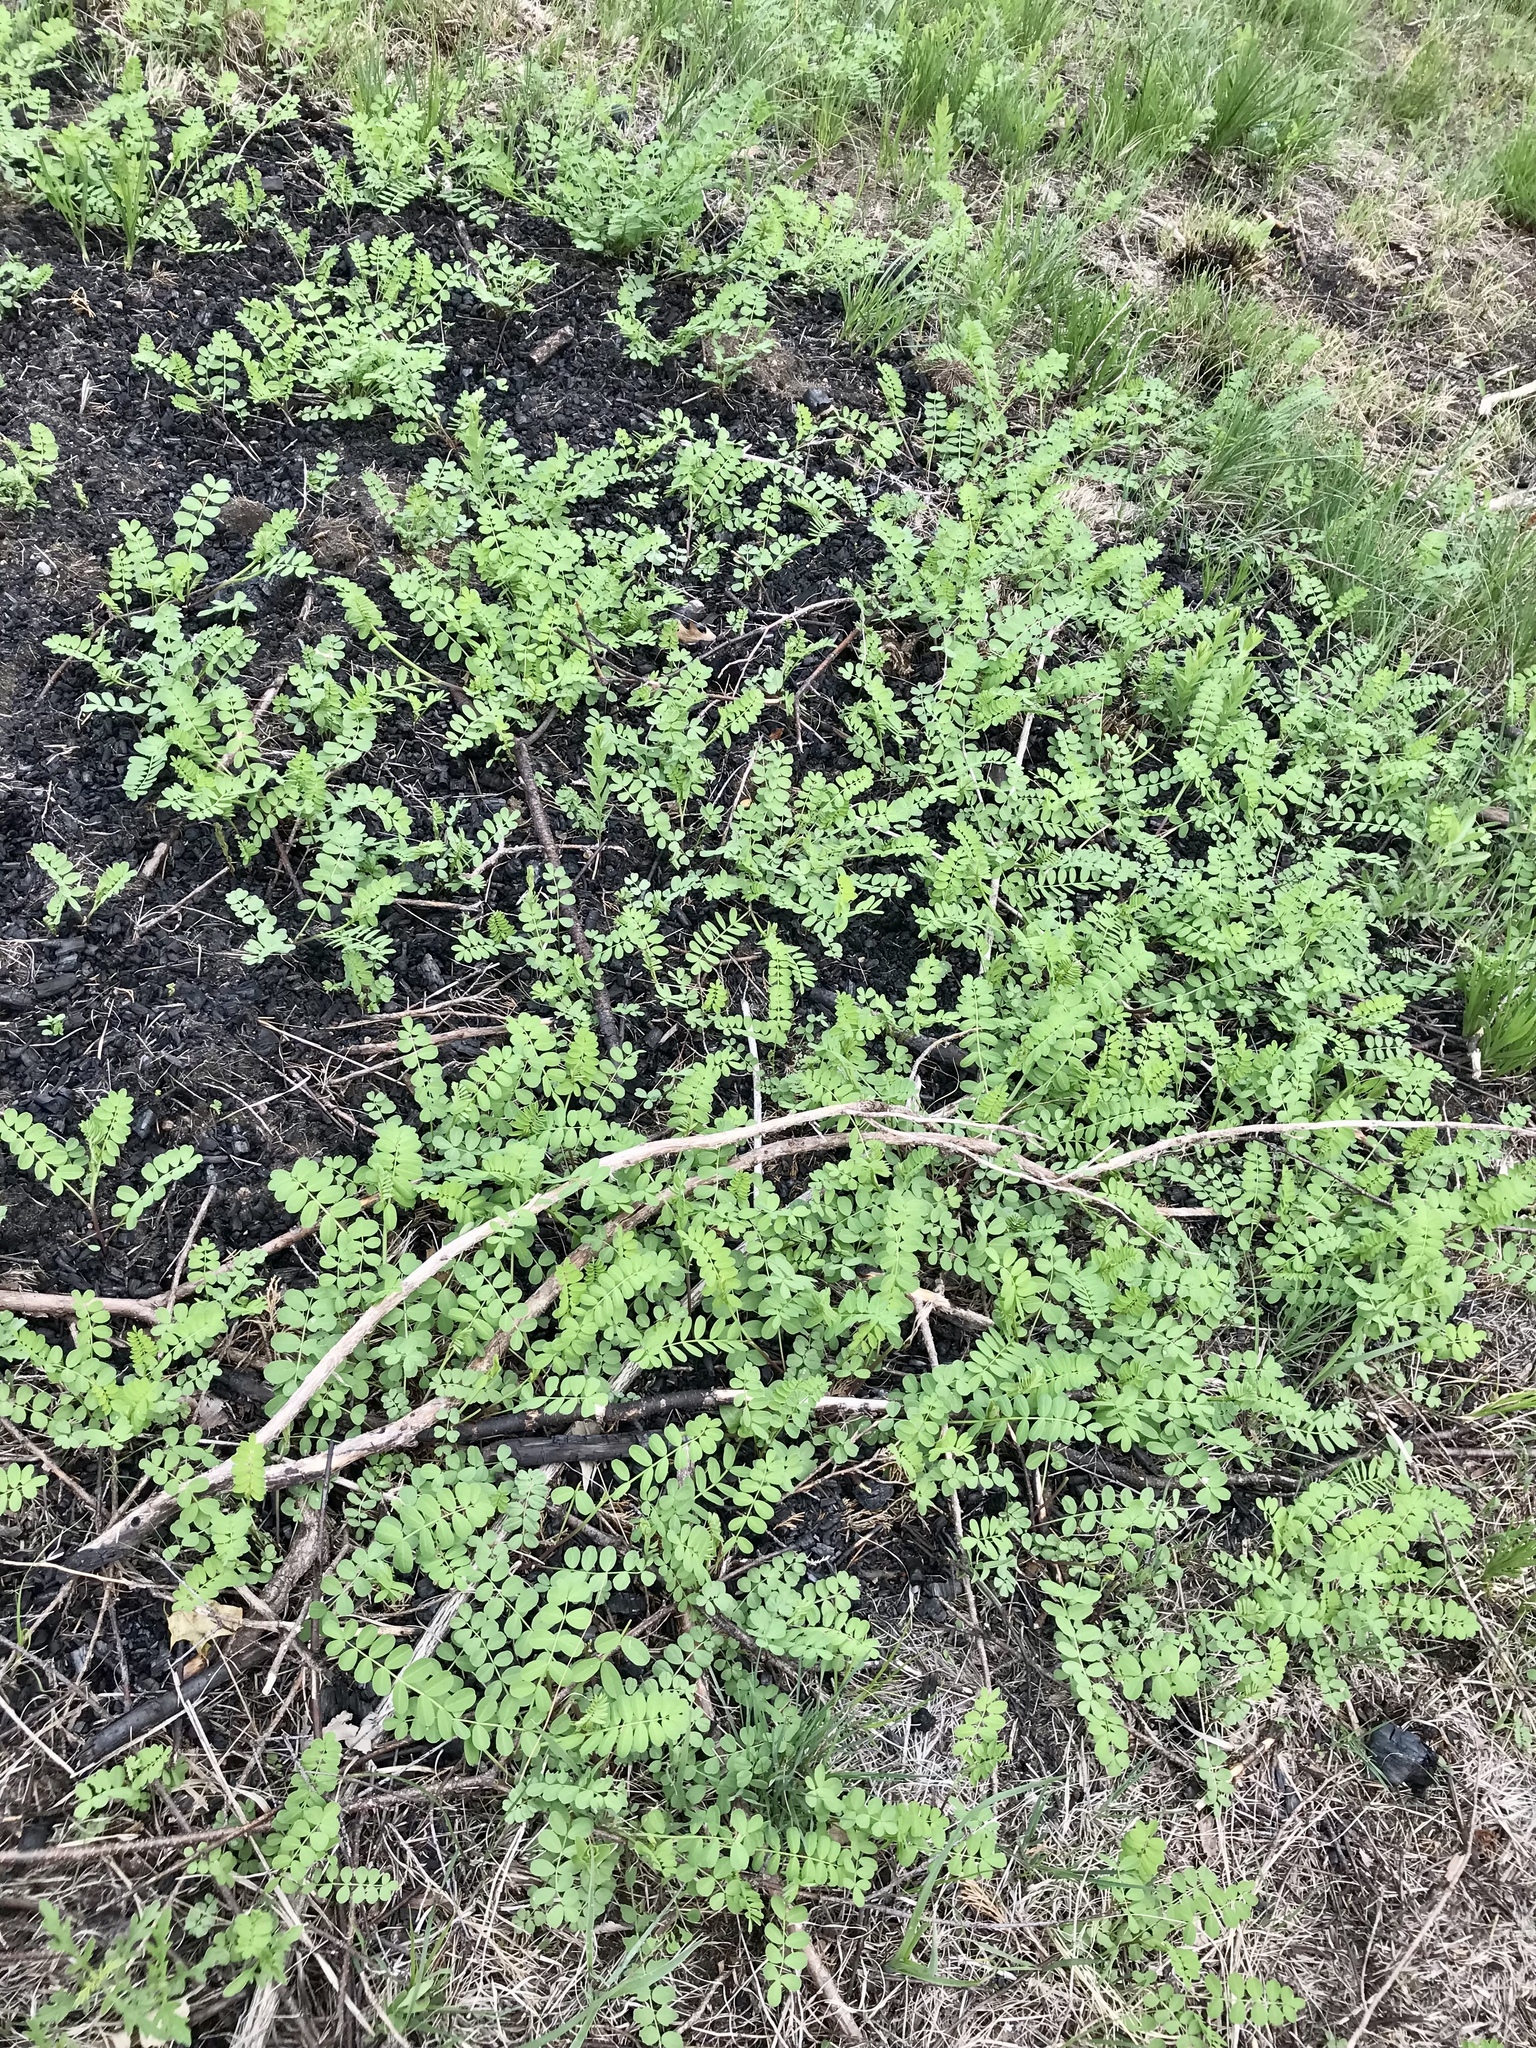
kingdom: Plantae
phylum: Tracheophyta
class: Magnoliopsida
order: Fabales
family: Fabaceae
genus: Coronilla
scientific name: Coronilla varia
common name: Crownvetch
